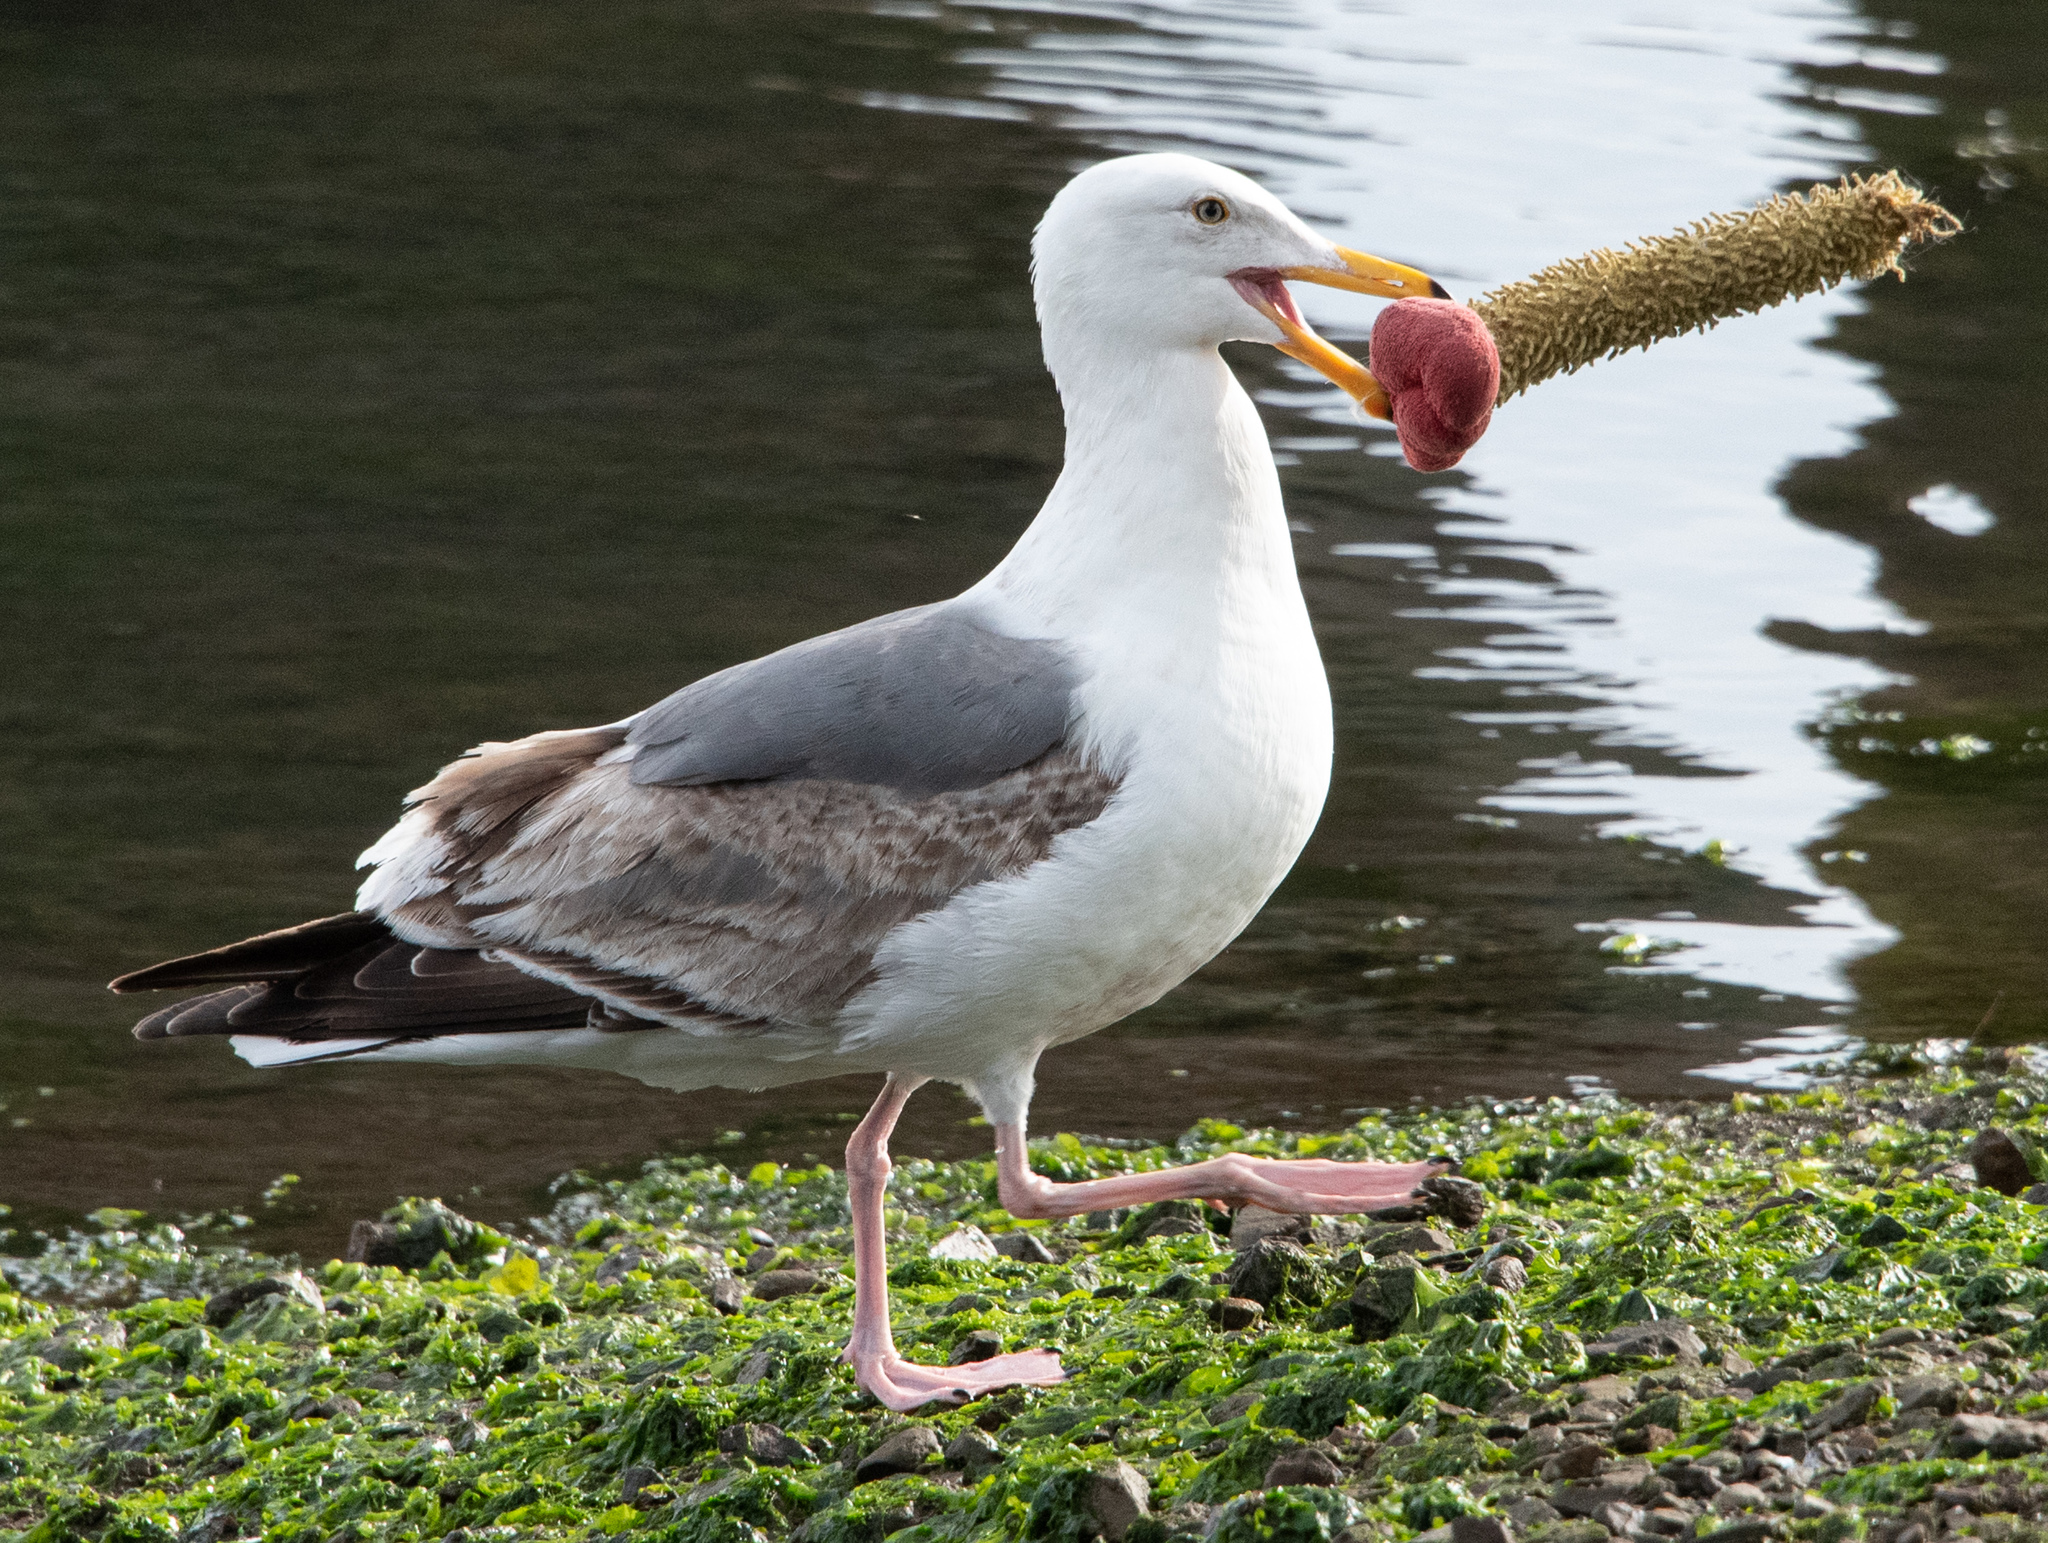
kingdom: Animalia
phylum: Chordata
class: Aves
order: Charadriiformes
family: Laridae
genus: Larus
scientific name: Larus occidentalis
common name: Western gull
